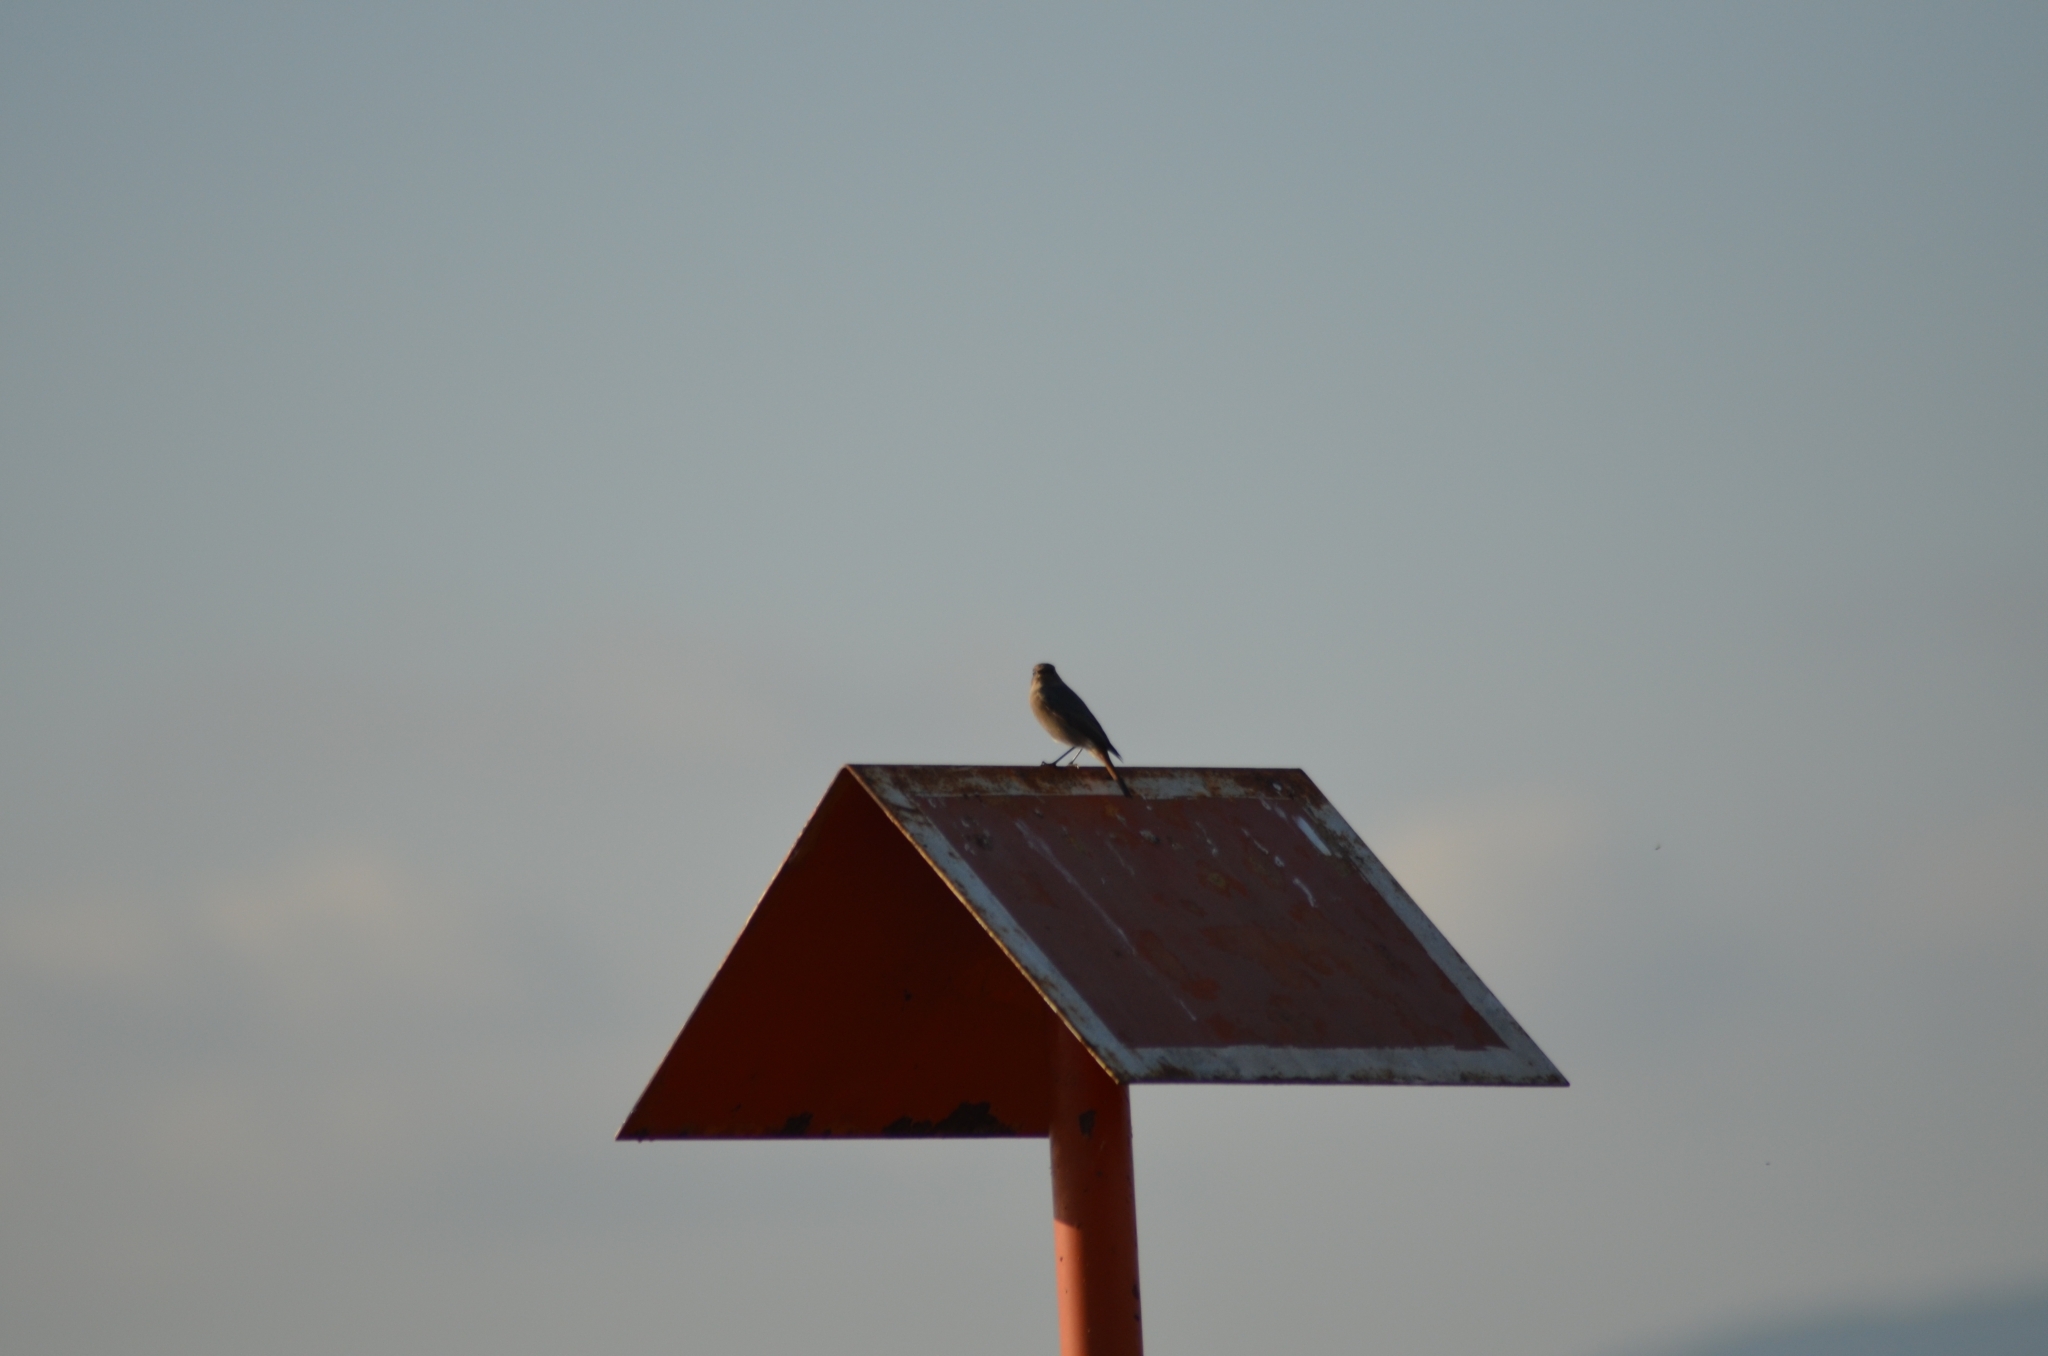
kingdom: Animalia
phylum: Chordata
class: Aves
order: Passeriformes
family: Muscicapidae
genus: Phoenicurus
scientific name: Phoenicurus ochruros
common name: Black redstart
